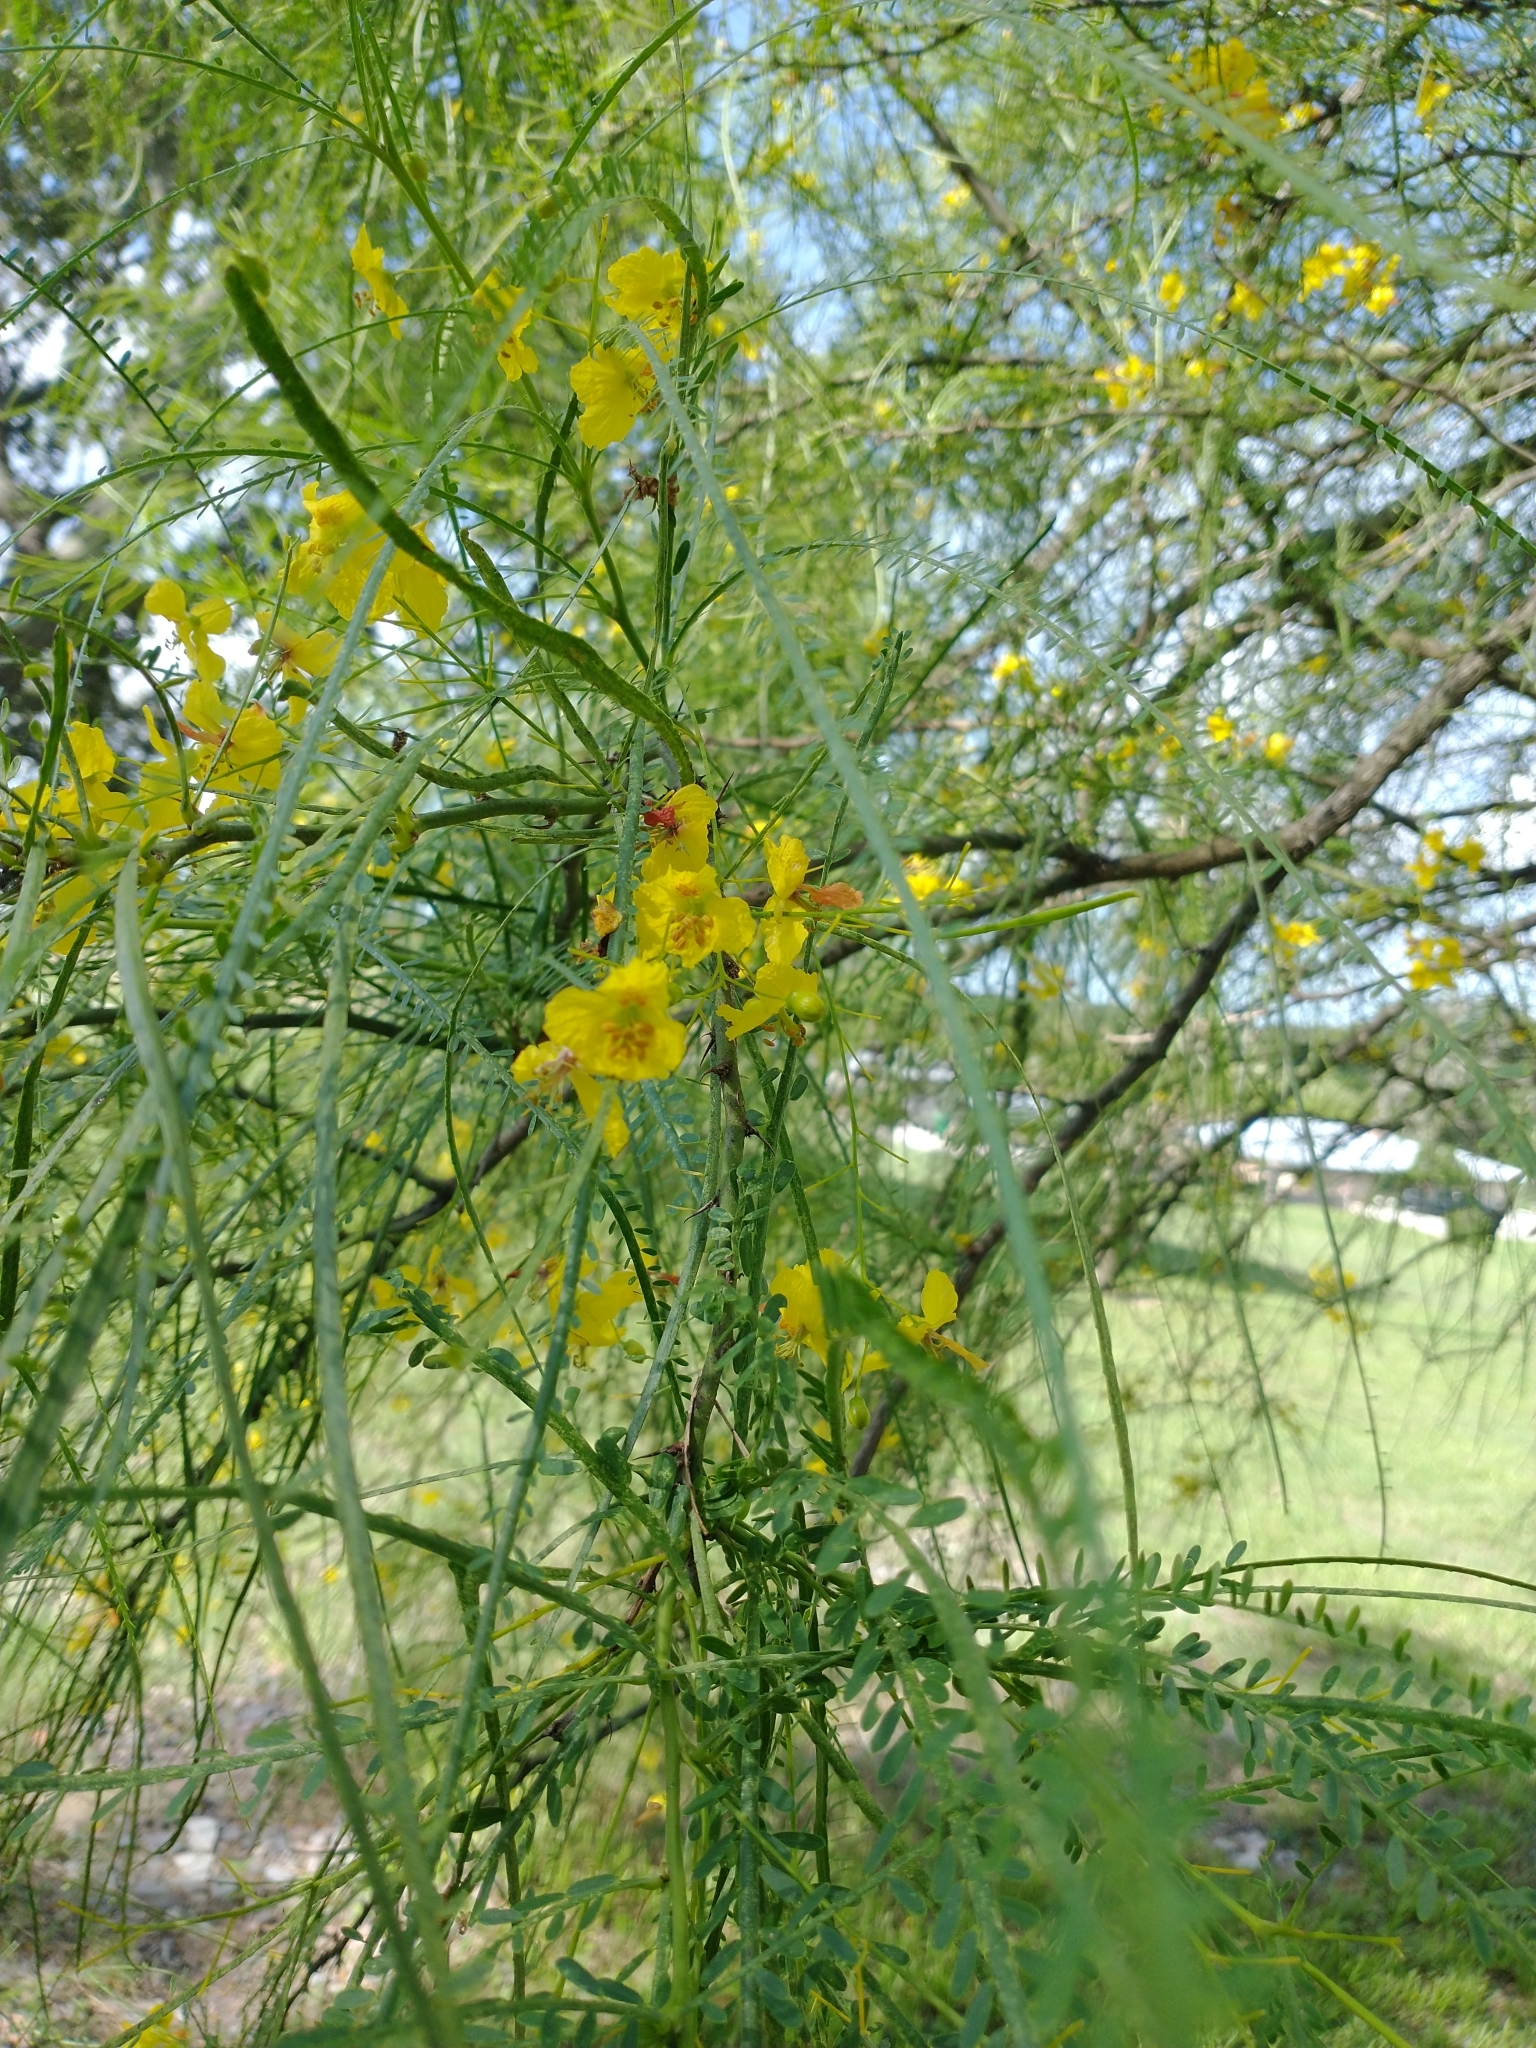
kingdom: Plantae
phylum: Tracheophyta
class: Magnoliopsida
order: Fabales
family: Fabaceae
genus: Parkinsonia
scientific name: Parkinsonia aculeata
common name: Jerusalem thorn
